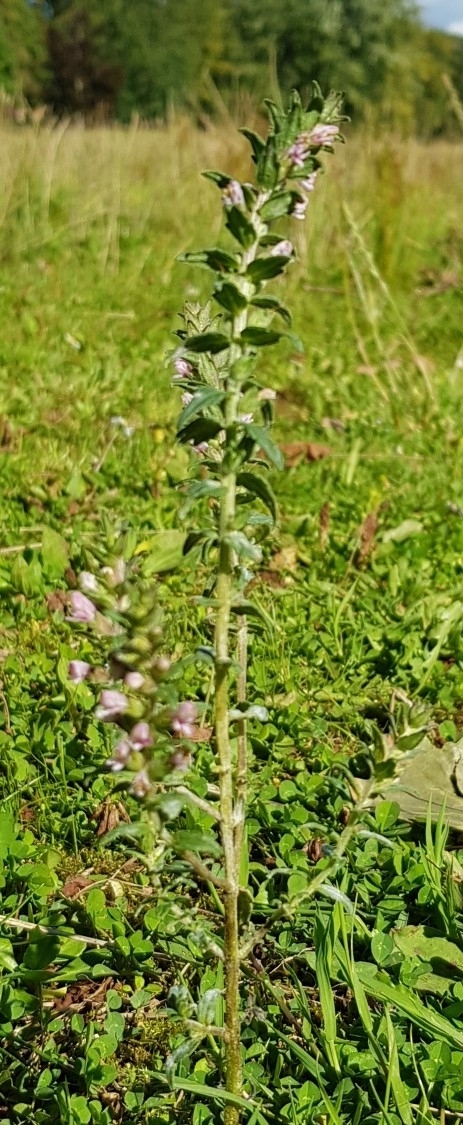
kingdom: Plantae
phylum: Tracheophyta
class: Magnoliopsida
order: Lamiales
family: Orobanchaceae
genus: Odontites
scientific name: Odontites vulgaris
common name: Broomrape
